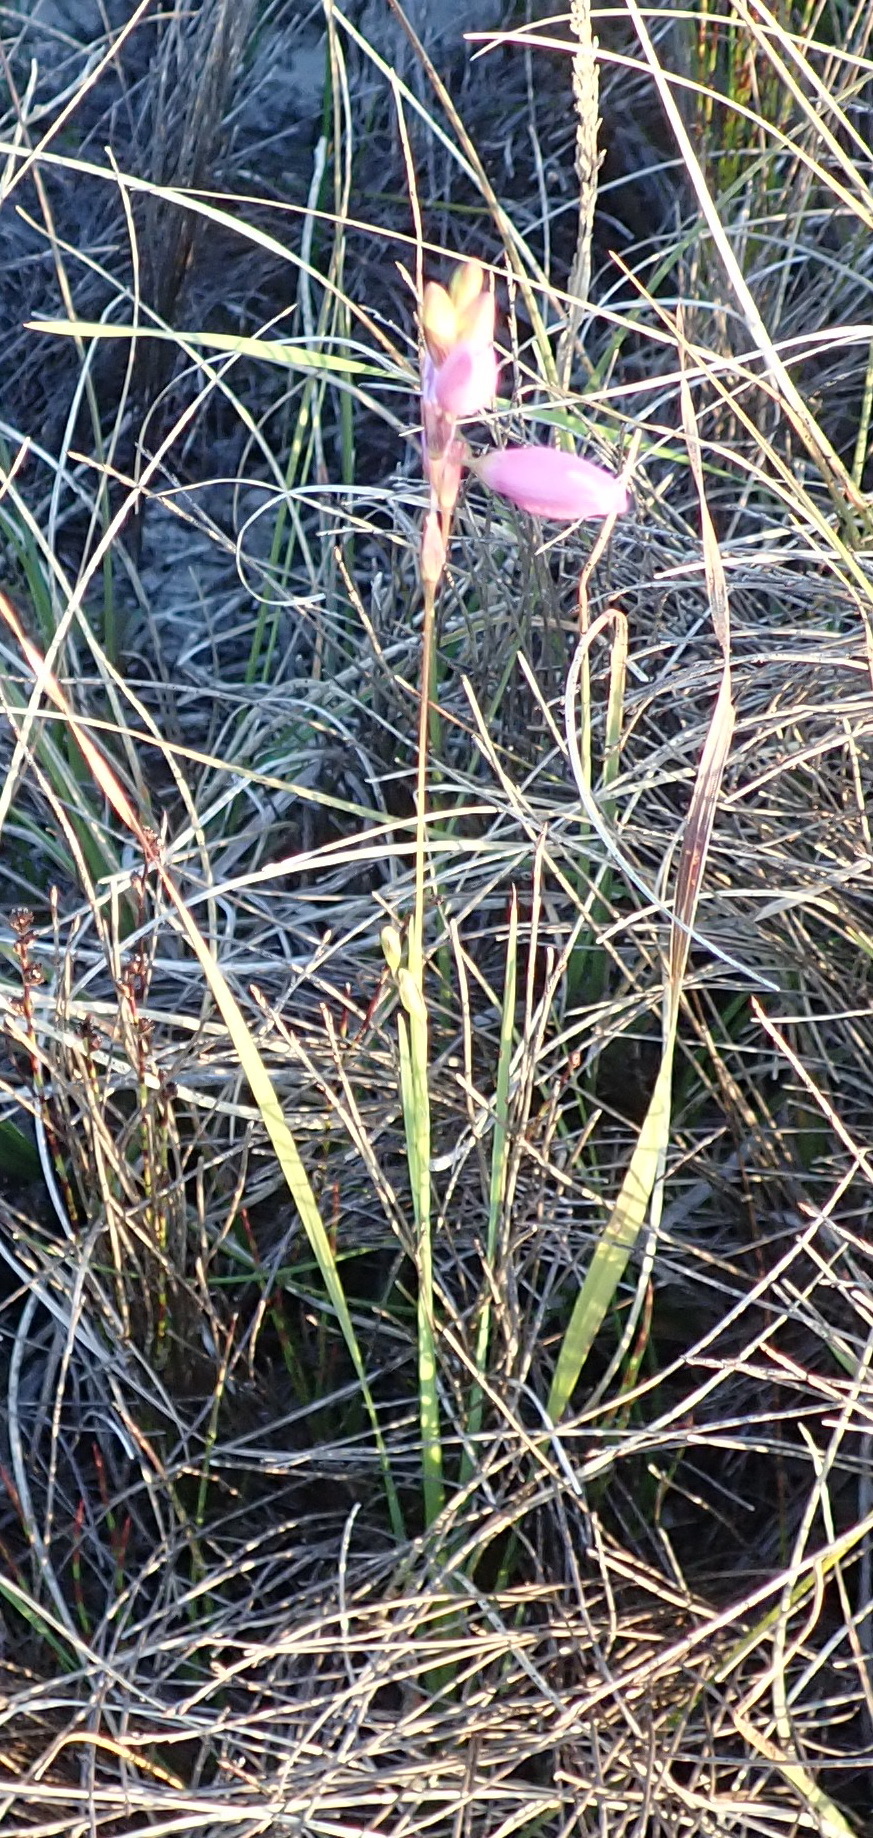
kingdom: Plantae
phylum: Tracheophyta
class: Liliopsida
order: Asparagales
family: Iridaceae
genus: Ixia
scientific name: Ixia orientalis
